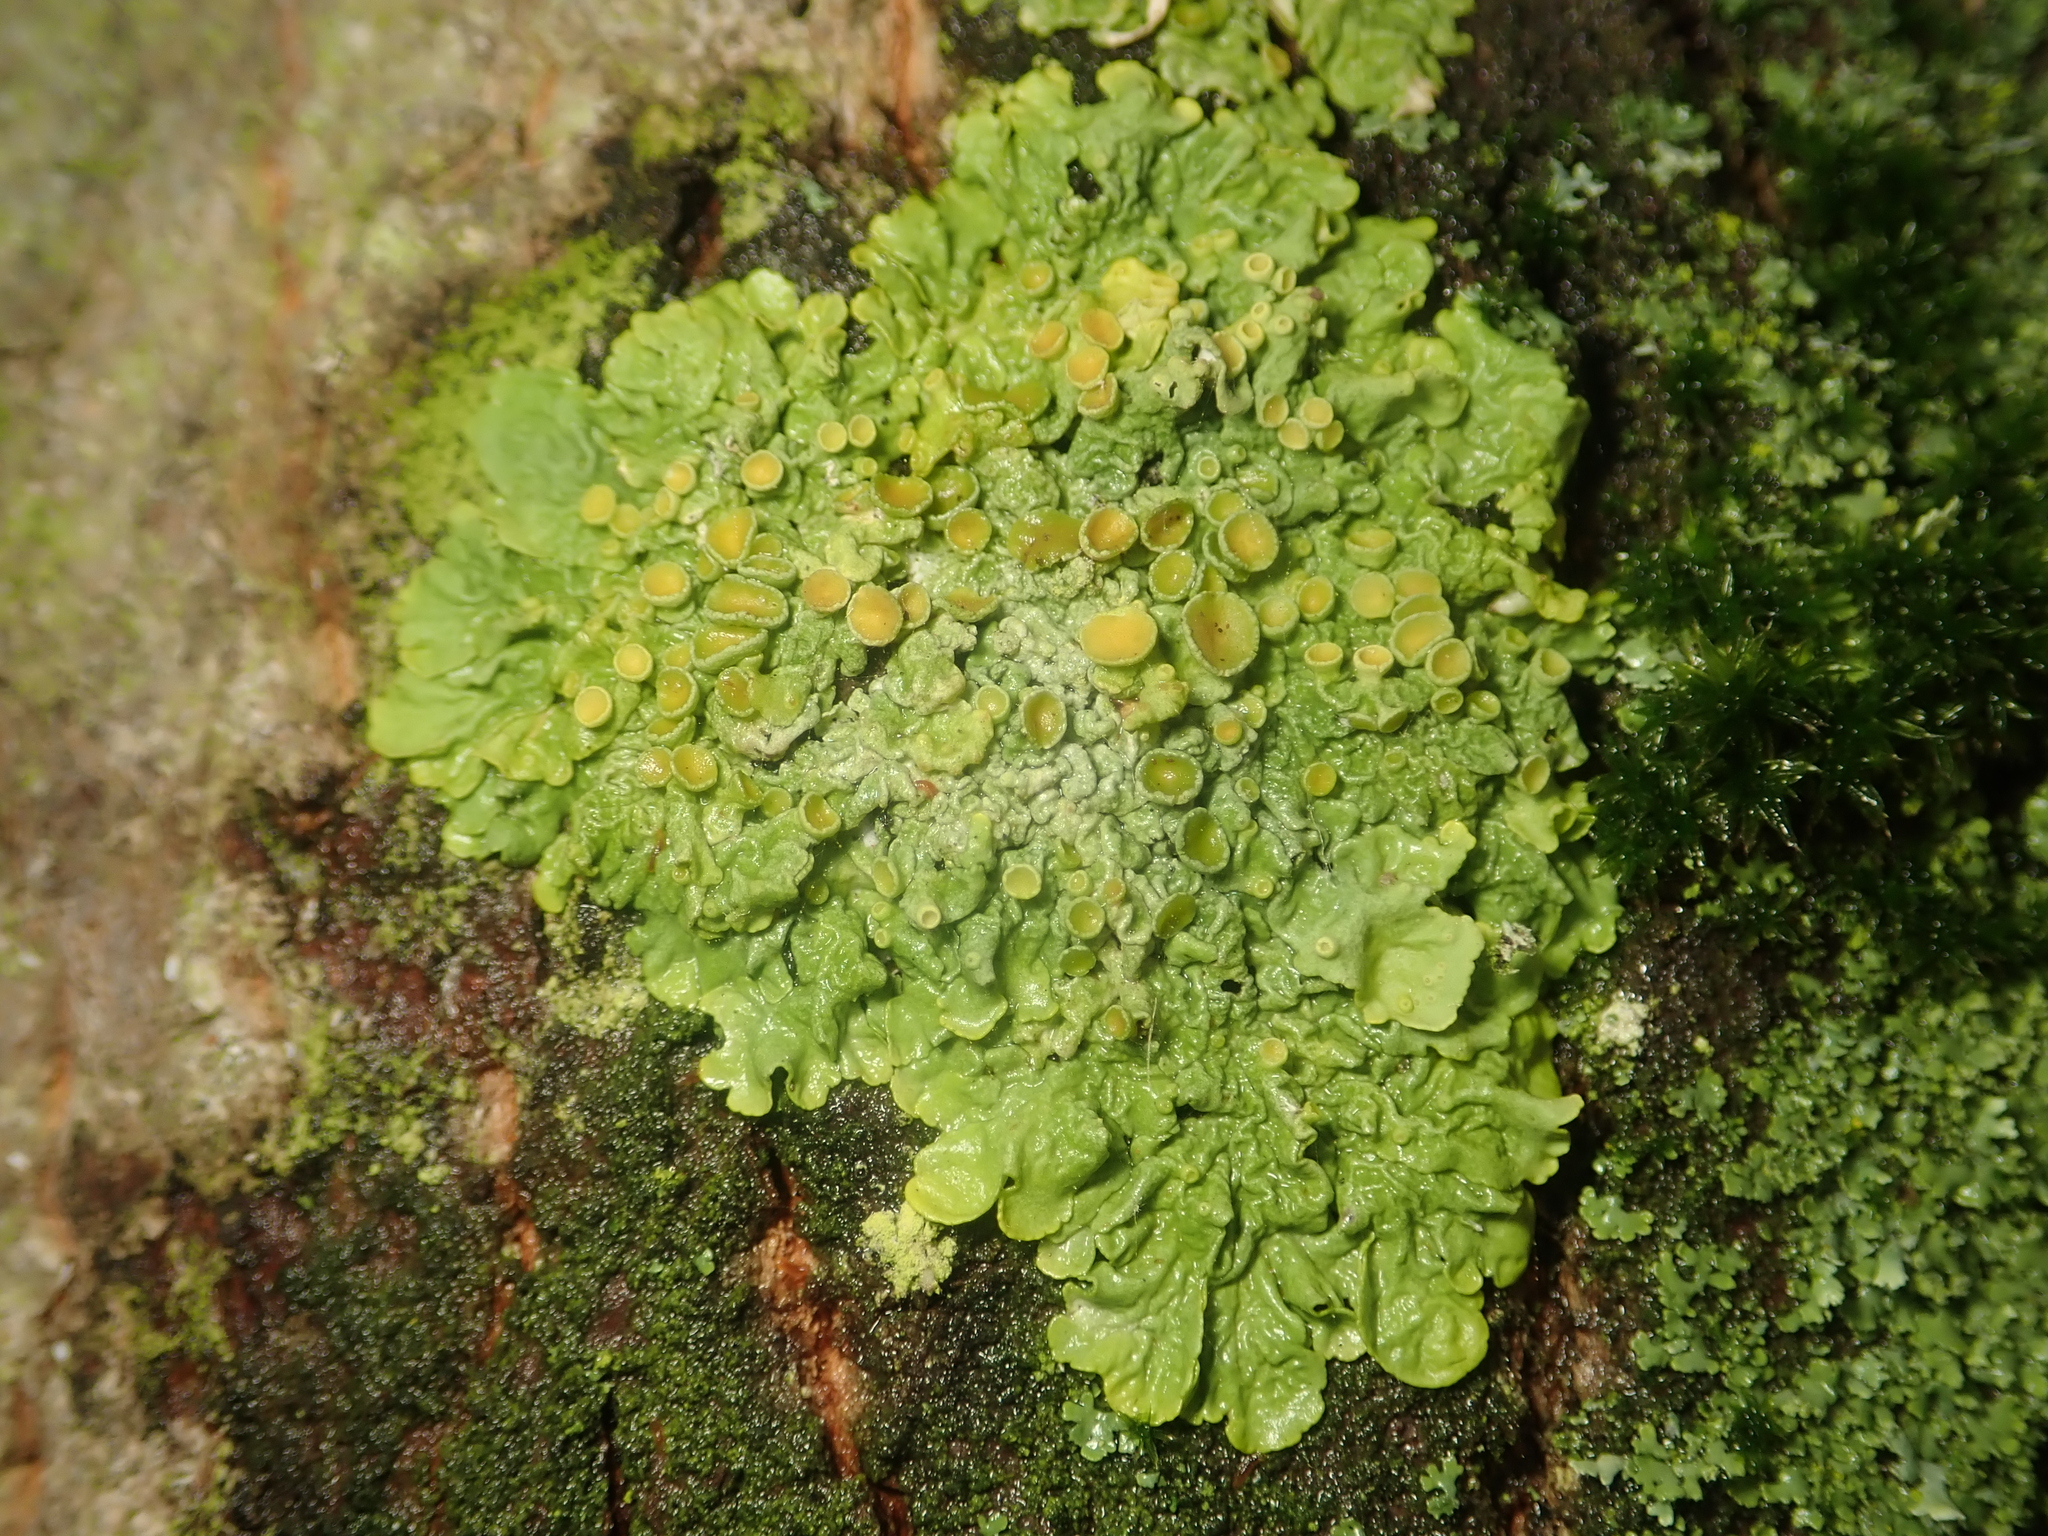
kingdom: Fungi
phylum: Ascomycota
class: Lecanoromycetes
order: Teloschistales
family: Teloschistaceae
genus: Xanthoria
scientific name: Xanthoria parietina
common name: Common orange lichen
